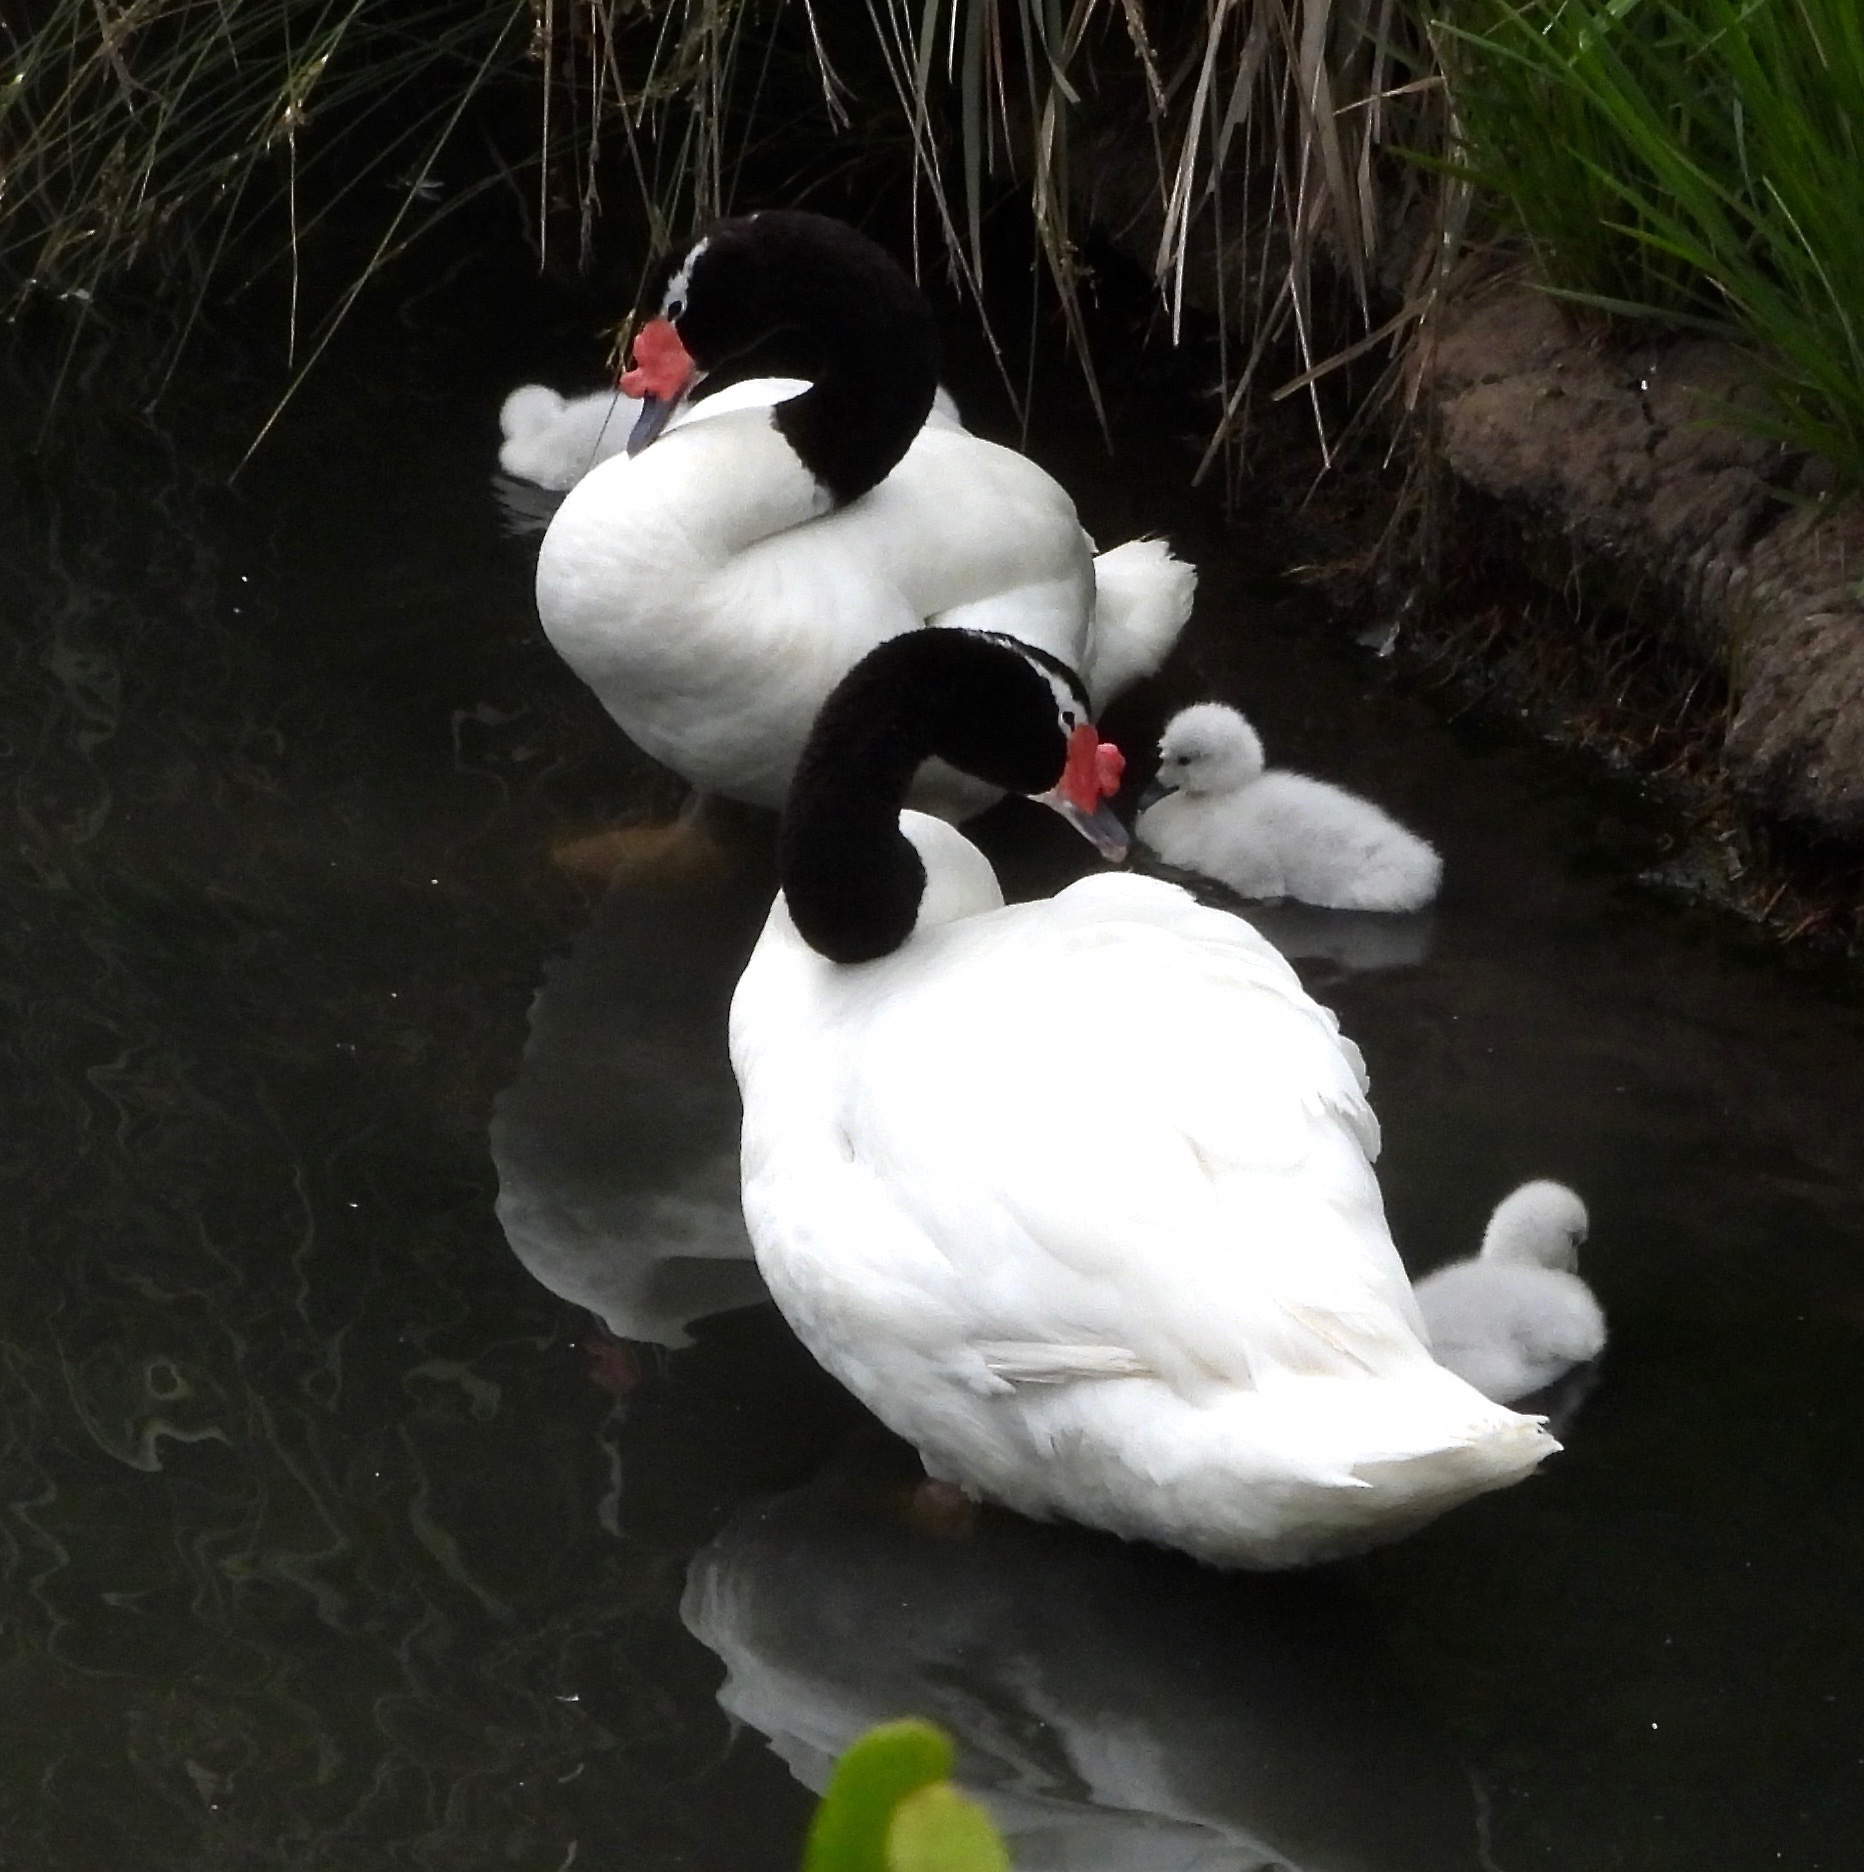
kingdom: Animalia
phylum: Chordata
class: Aves
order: Anseriformes
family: Anatidae
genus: Cygnus
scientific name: Cygnus melancoryphus
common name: Black-necked swan
